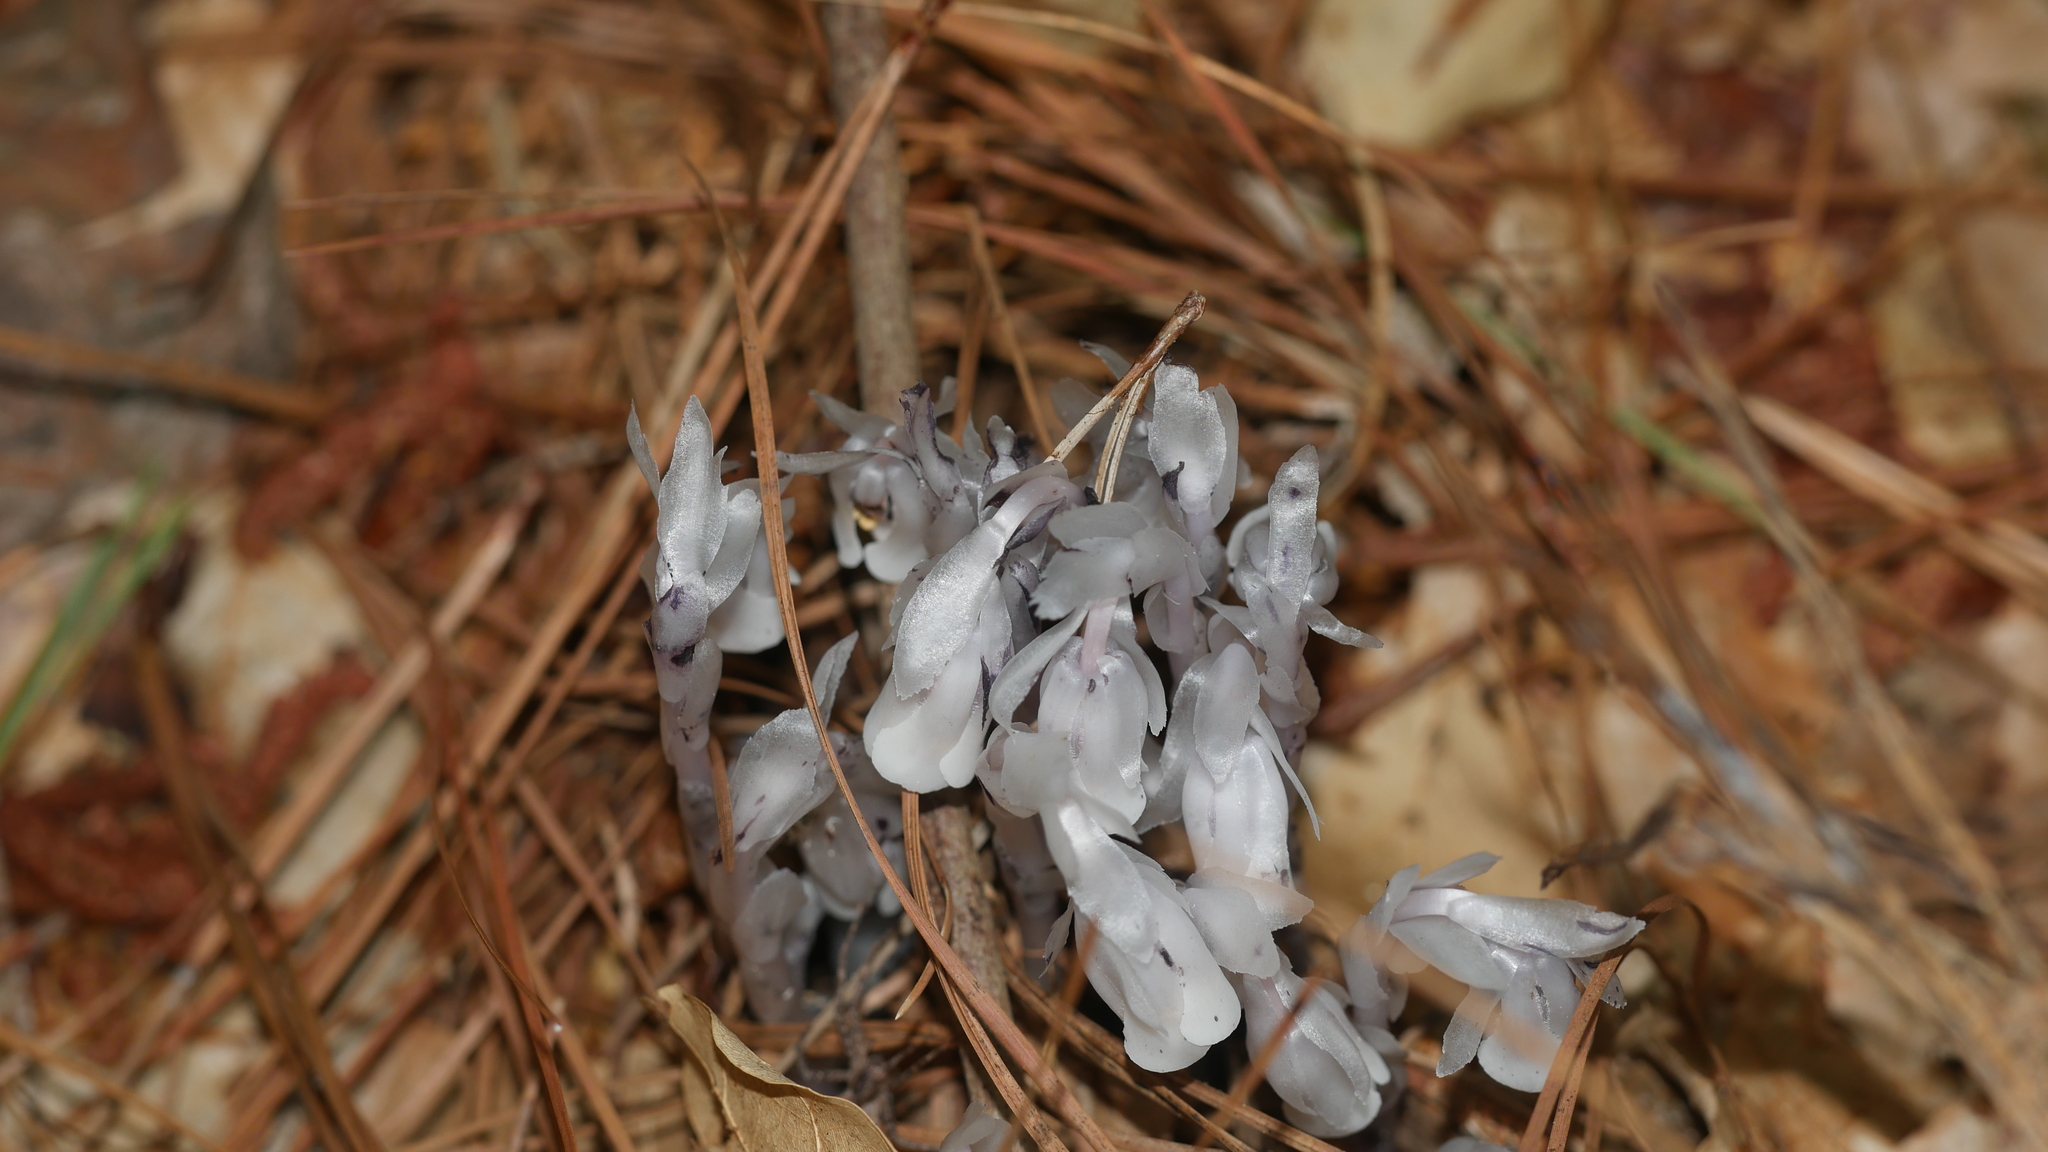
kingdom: Plantae
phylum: Tracheophyta
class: Magnoliopsida
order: Ericales
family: Ericaceae
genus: Monotropa
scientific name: Monotropa uniflora
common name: Convulsion root
